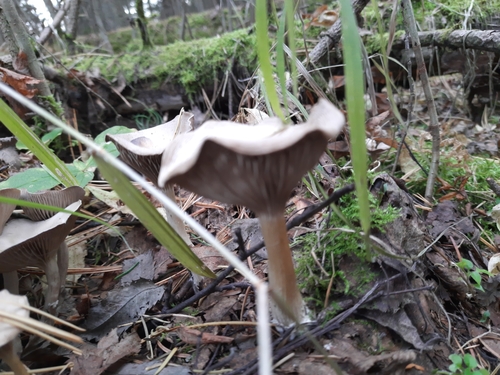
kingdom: Fungi
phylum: Basidiomycota
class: Agaricomycetes
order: Agaricales
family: Tricholomataceae
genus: Infundibulicybe
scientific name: Infundibulicybe gibba
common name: Common funnel
